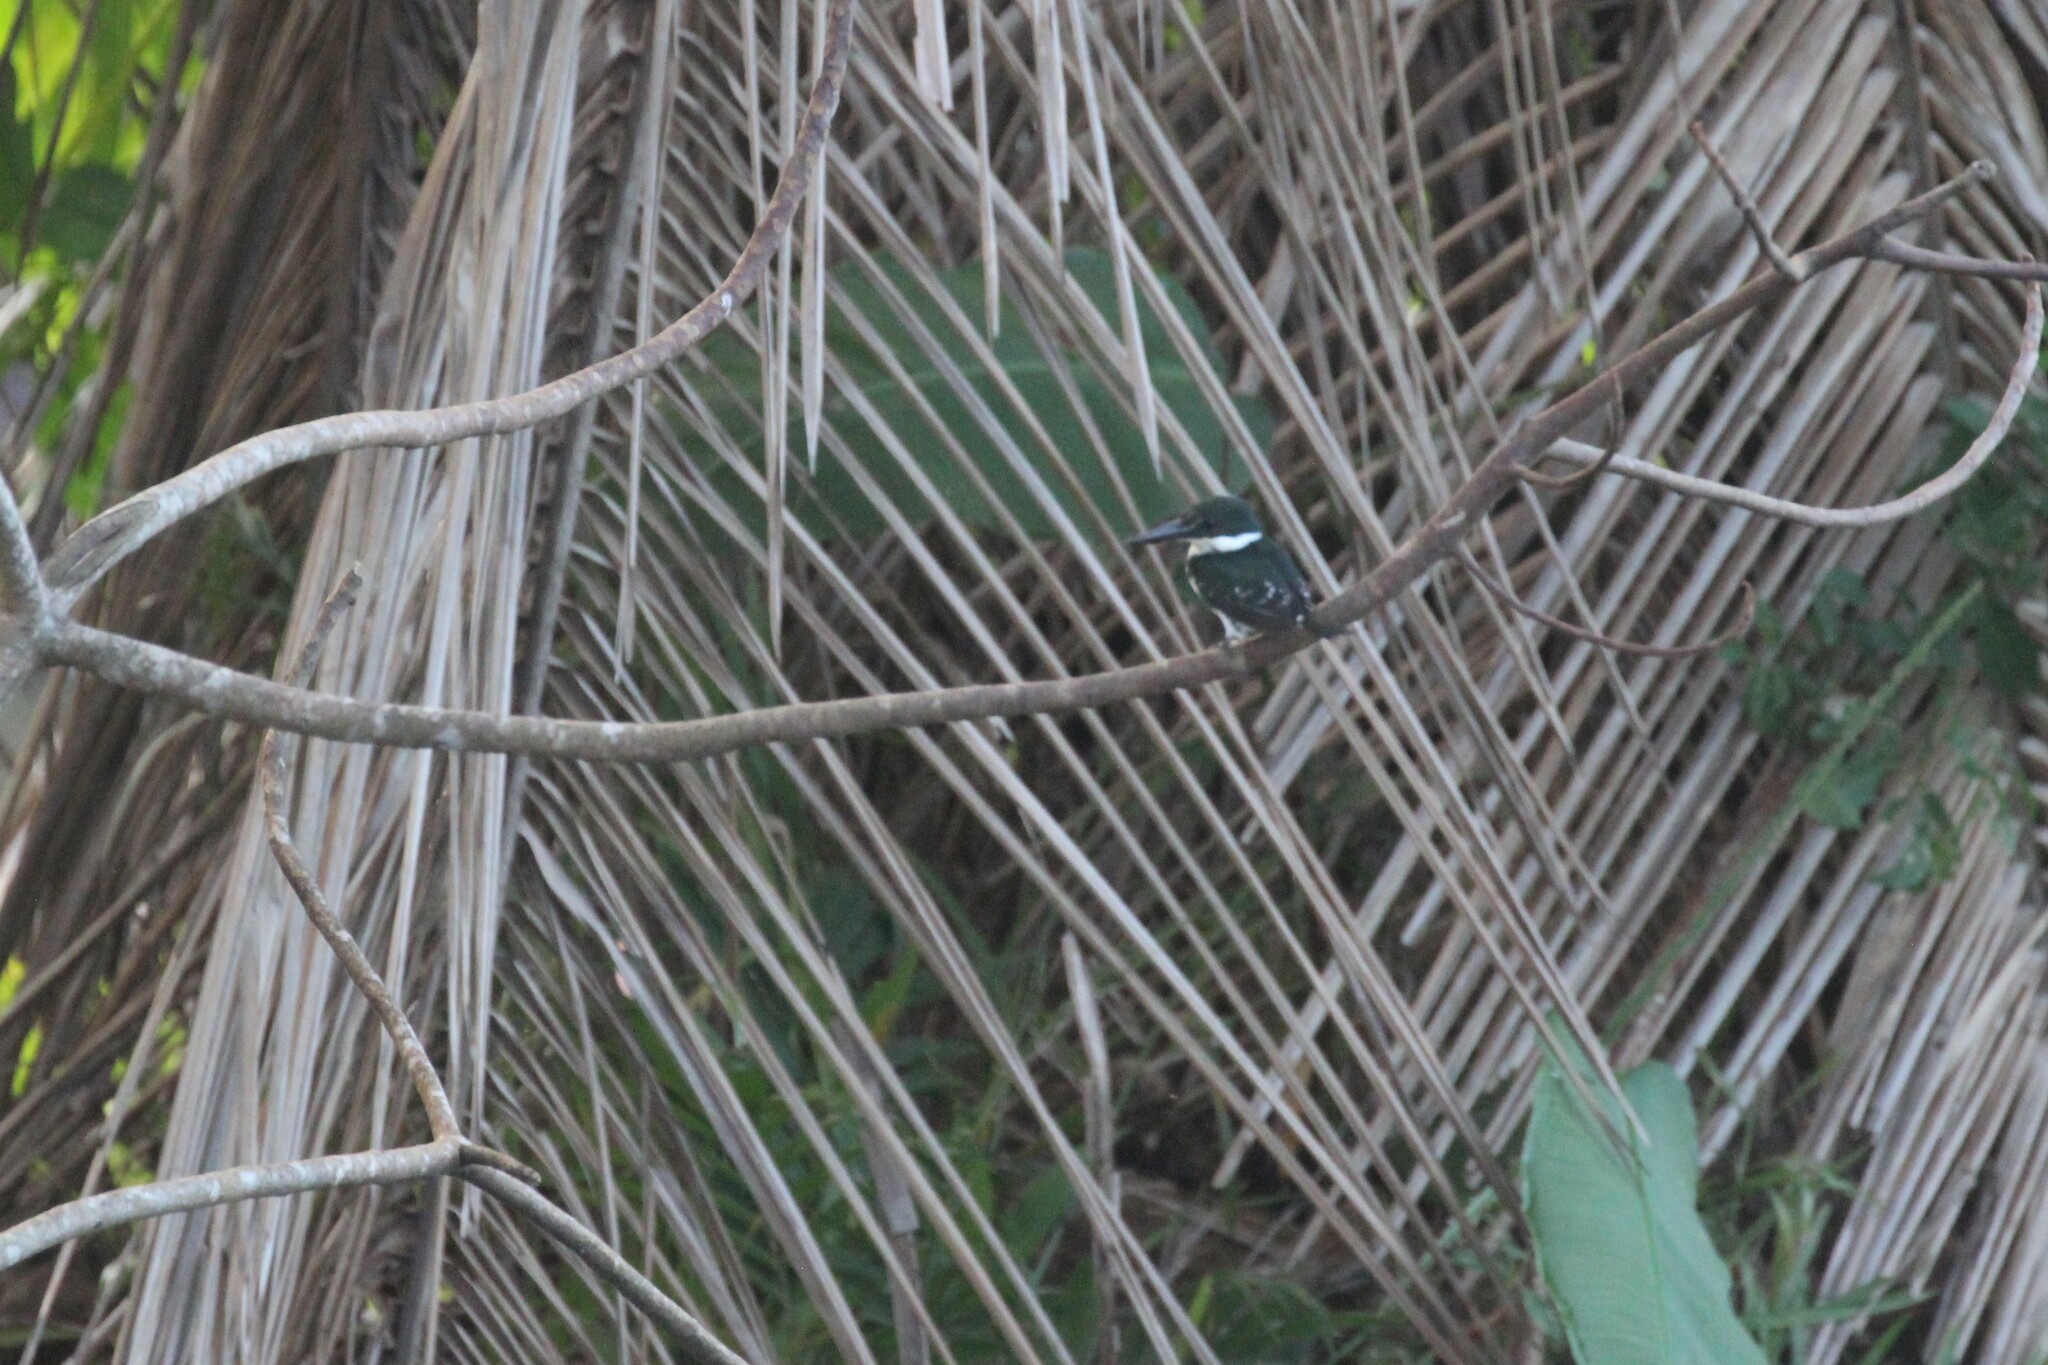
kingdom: Animalia
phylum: Chordata
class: Aves
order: Coraciiformes
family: Alcedinidae
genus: Chloroceryle
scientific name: Chloroceryle americana
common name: Green kingfisher
